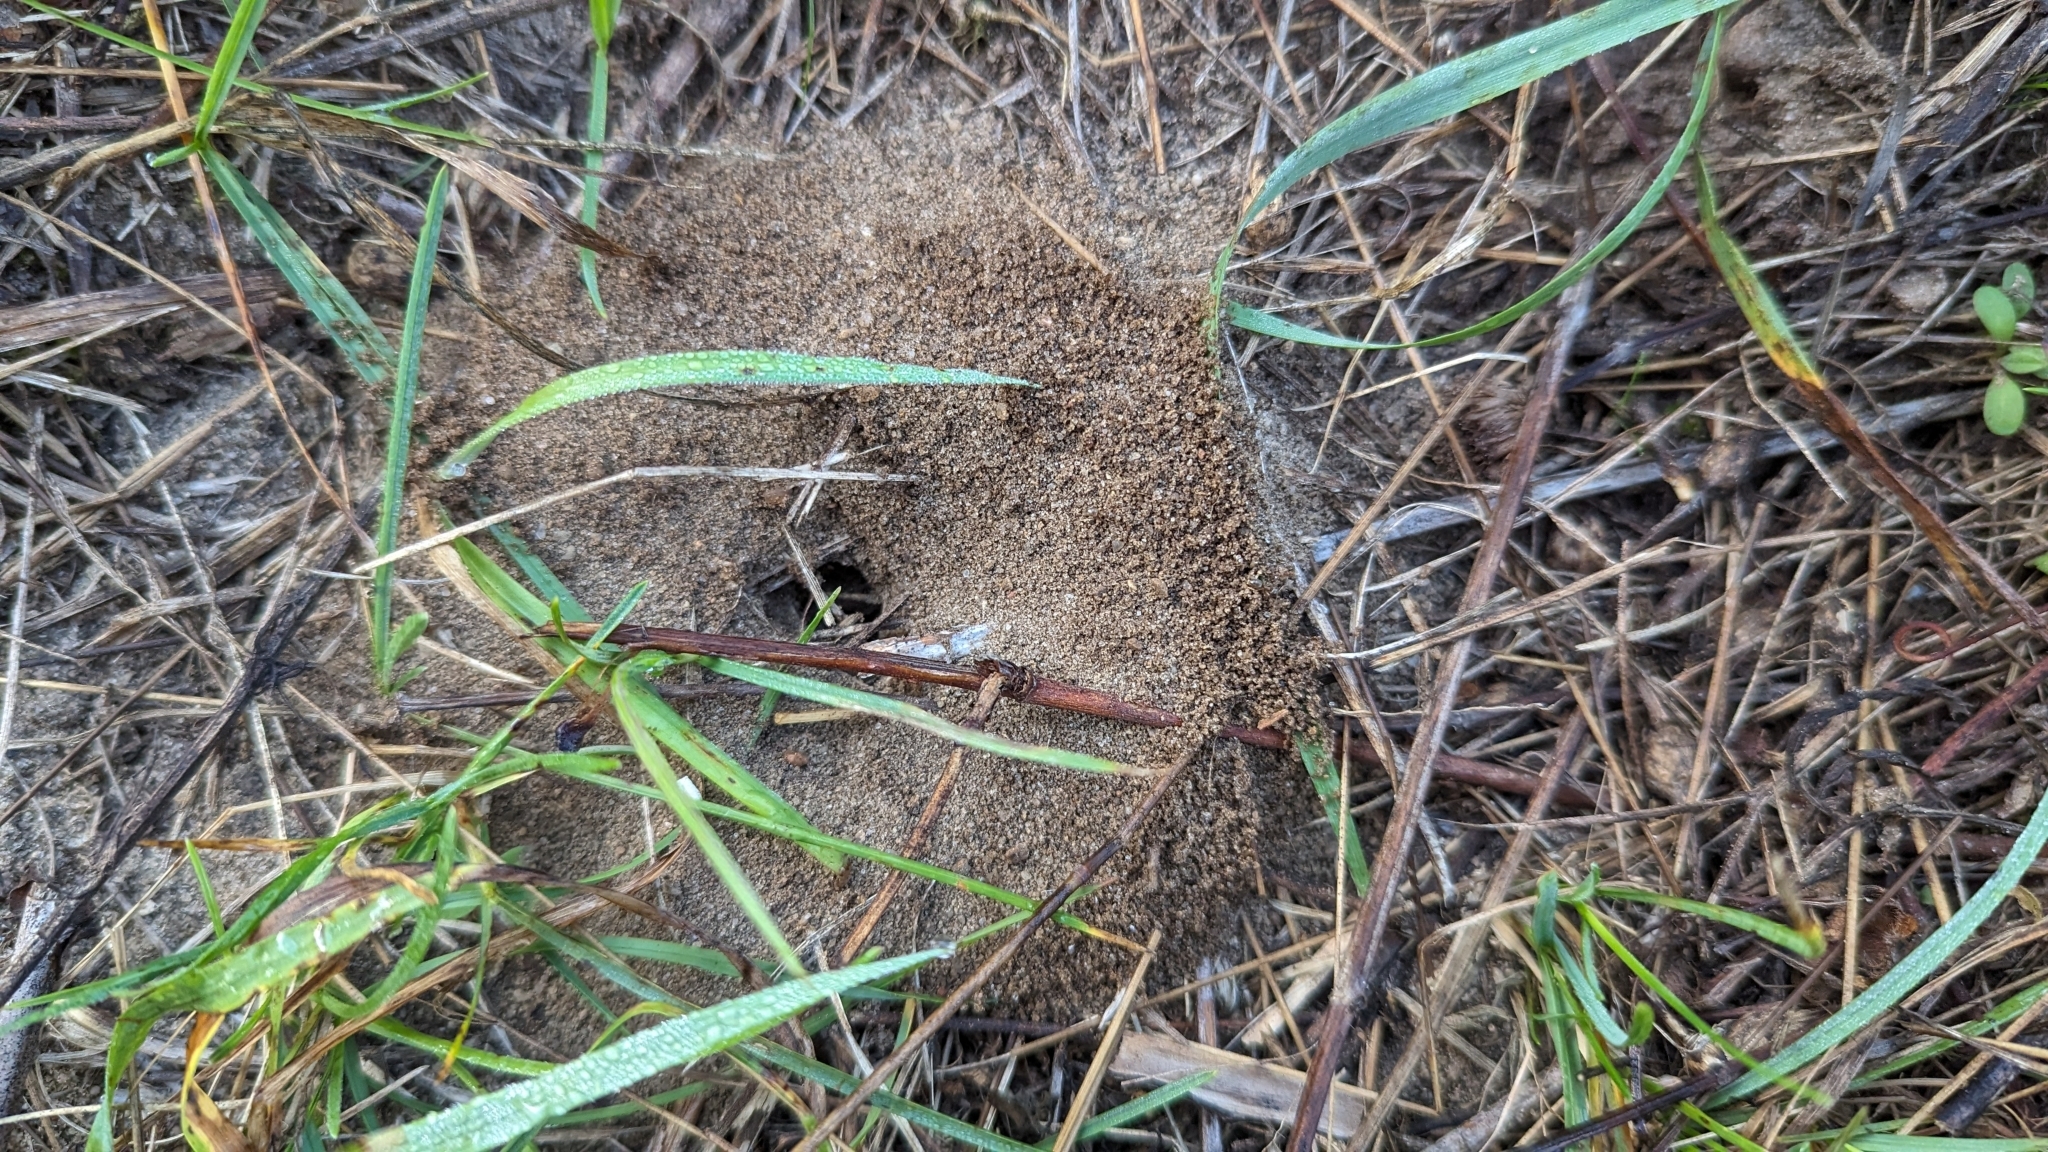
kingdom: Animalia
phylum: Arthropoda
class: Insecta
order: Hymenoptera
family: Formicidae
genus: Lasius
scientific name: Lasius neoniger
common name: Turfgrass ant
